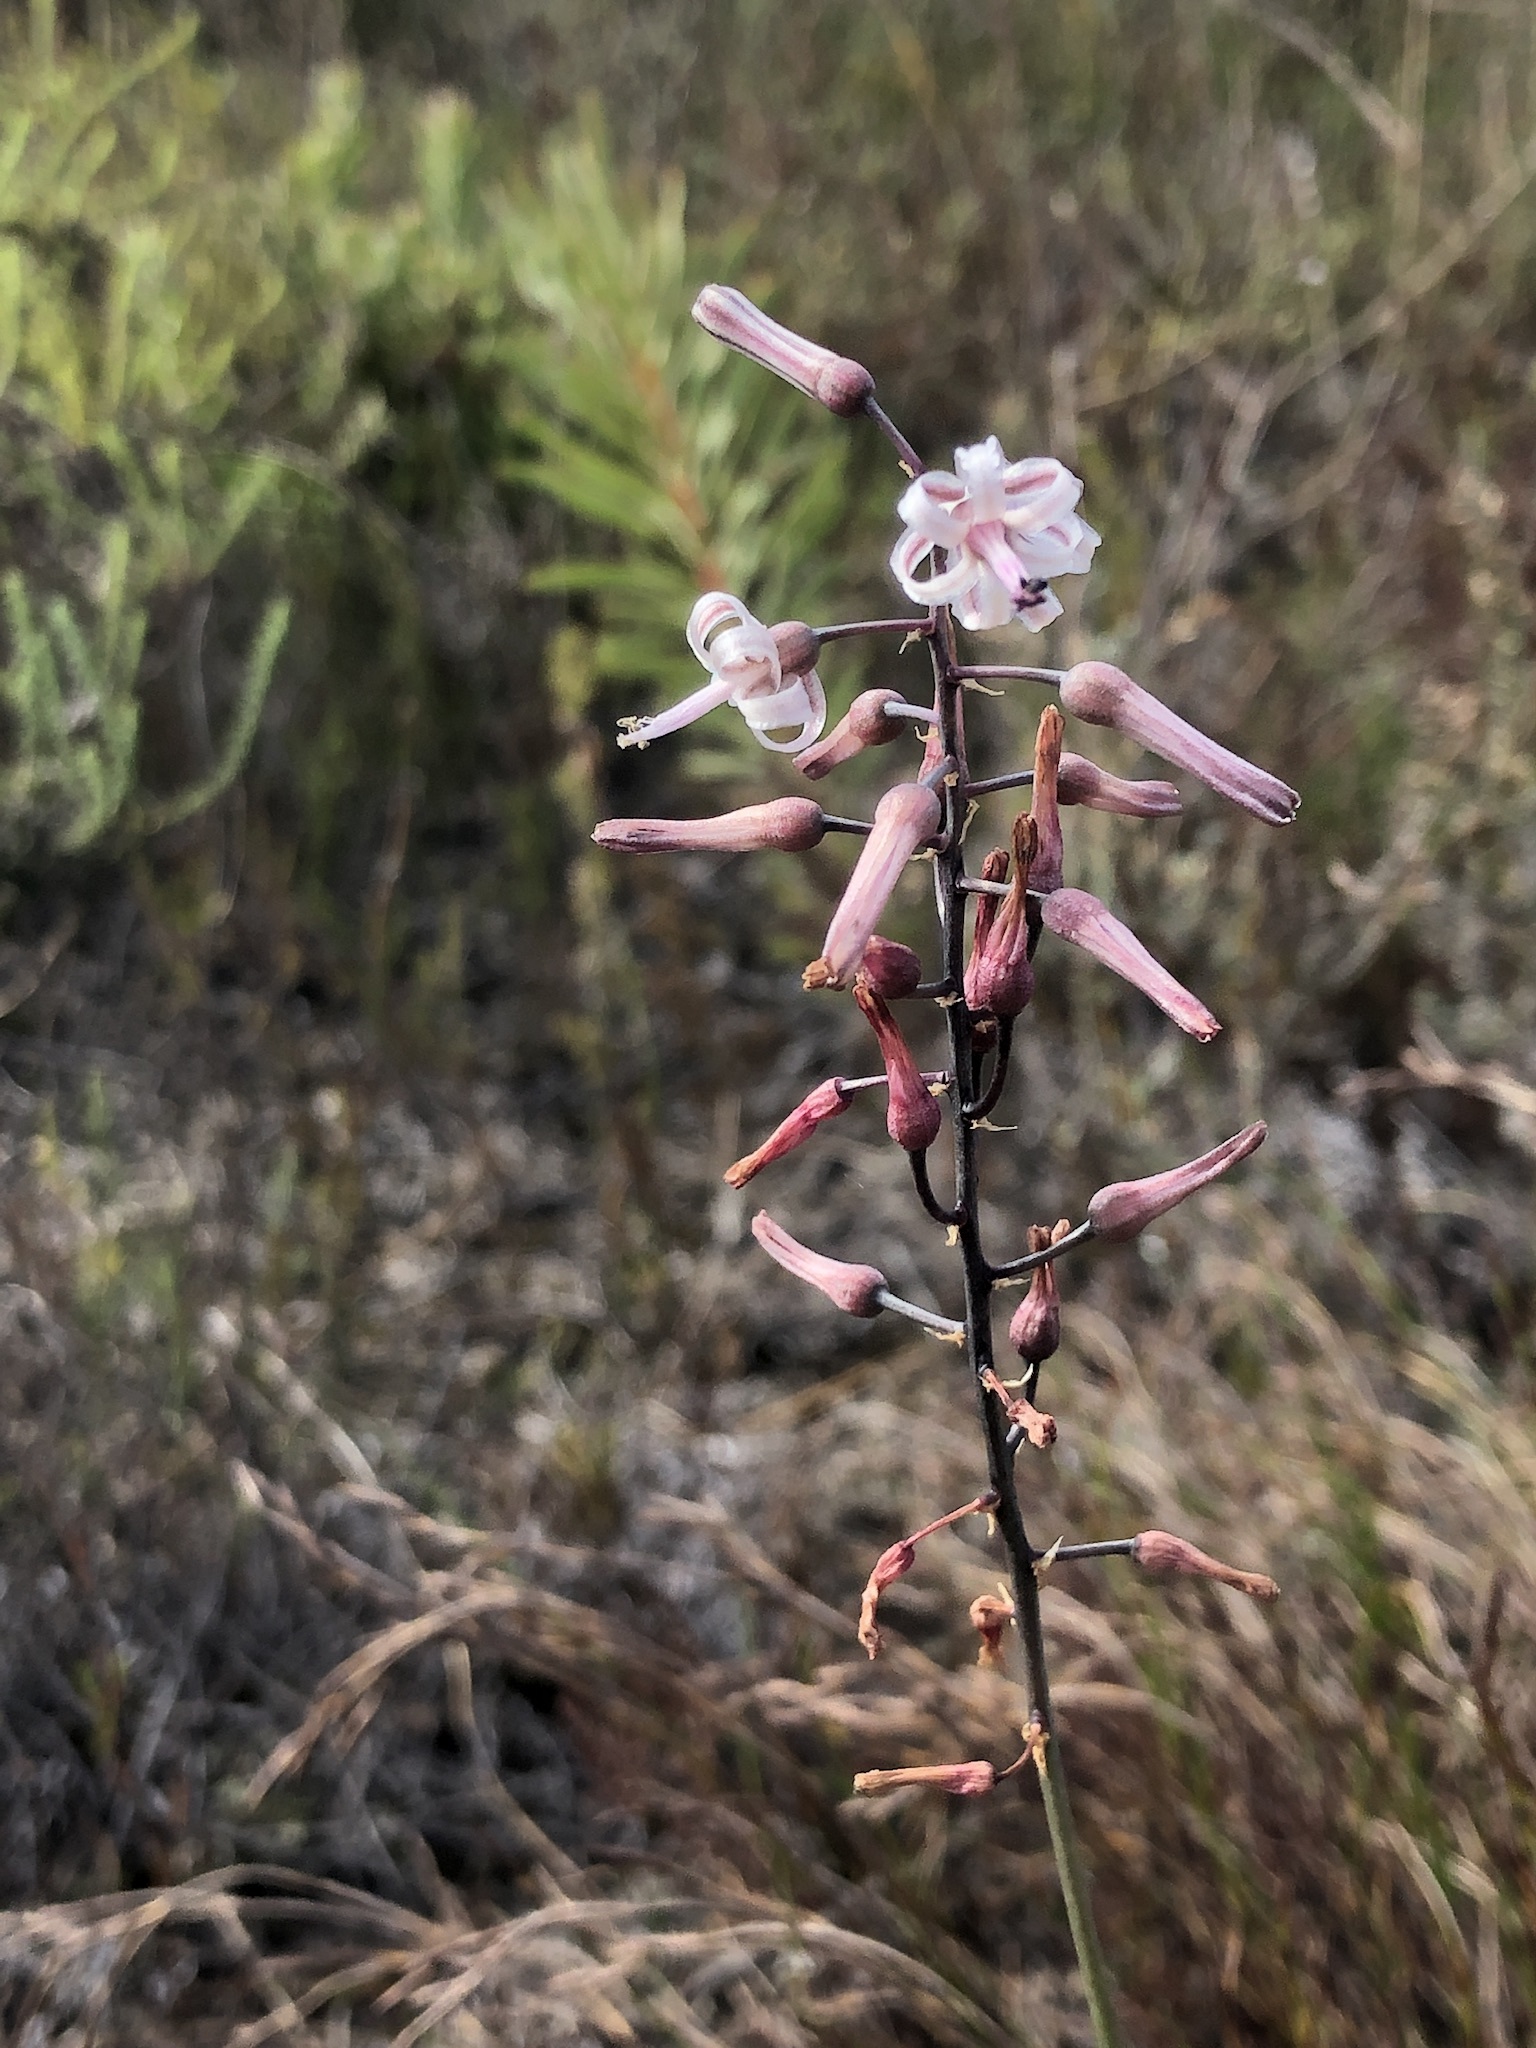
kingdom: Plantae
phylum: Tracheophyta
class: Liliopsida
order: Asparagales
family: Asparagaceae
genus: Drimia
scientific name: Drimia media
